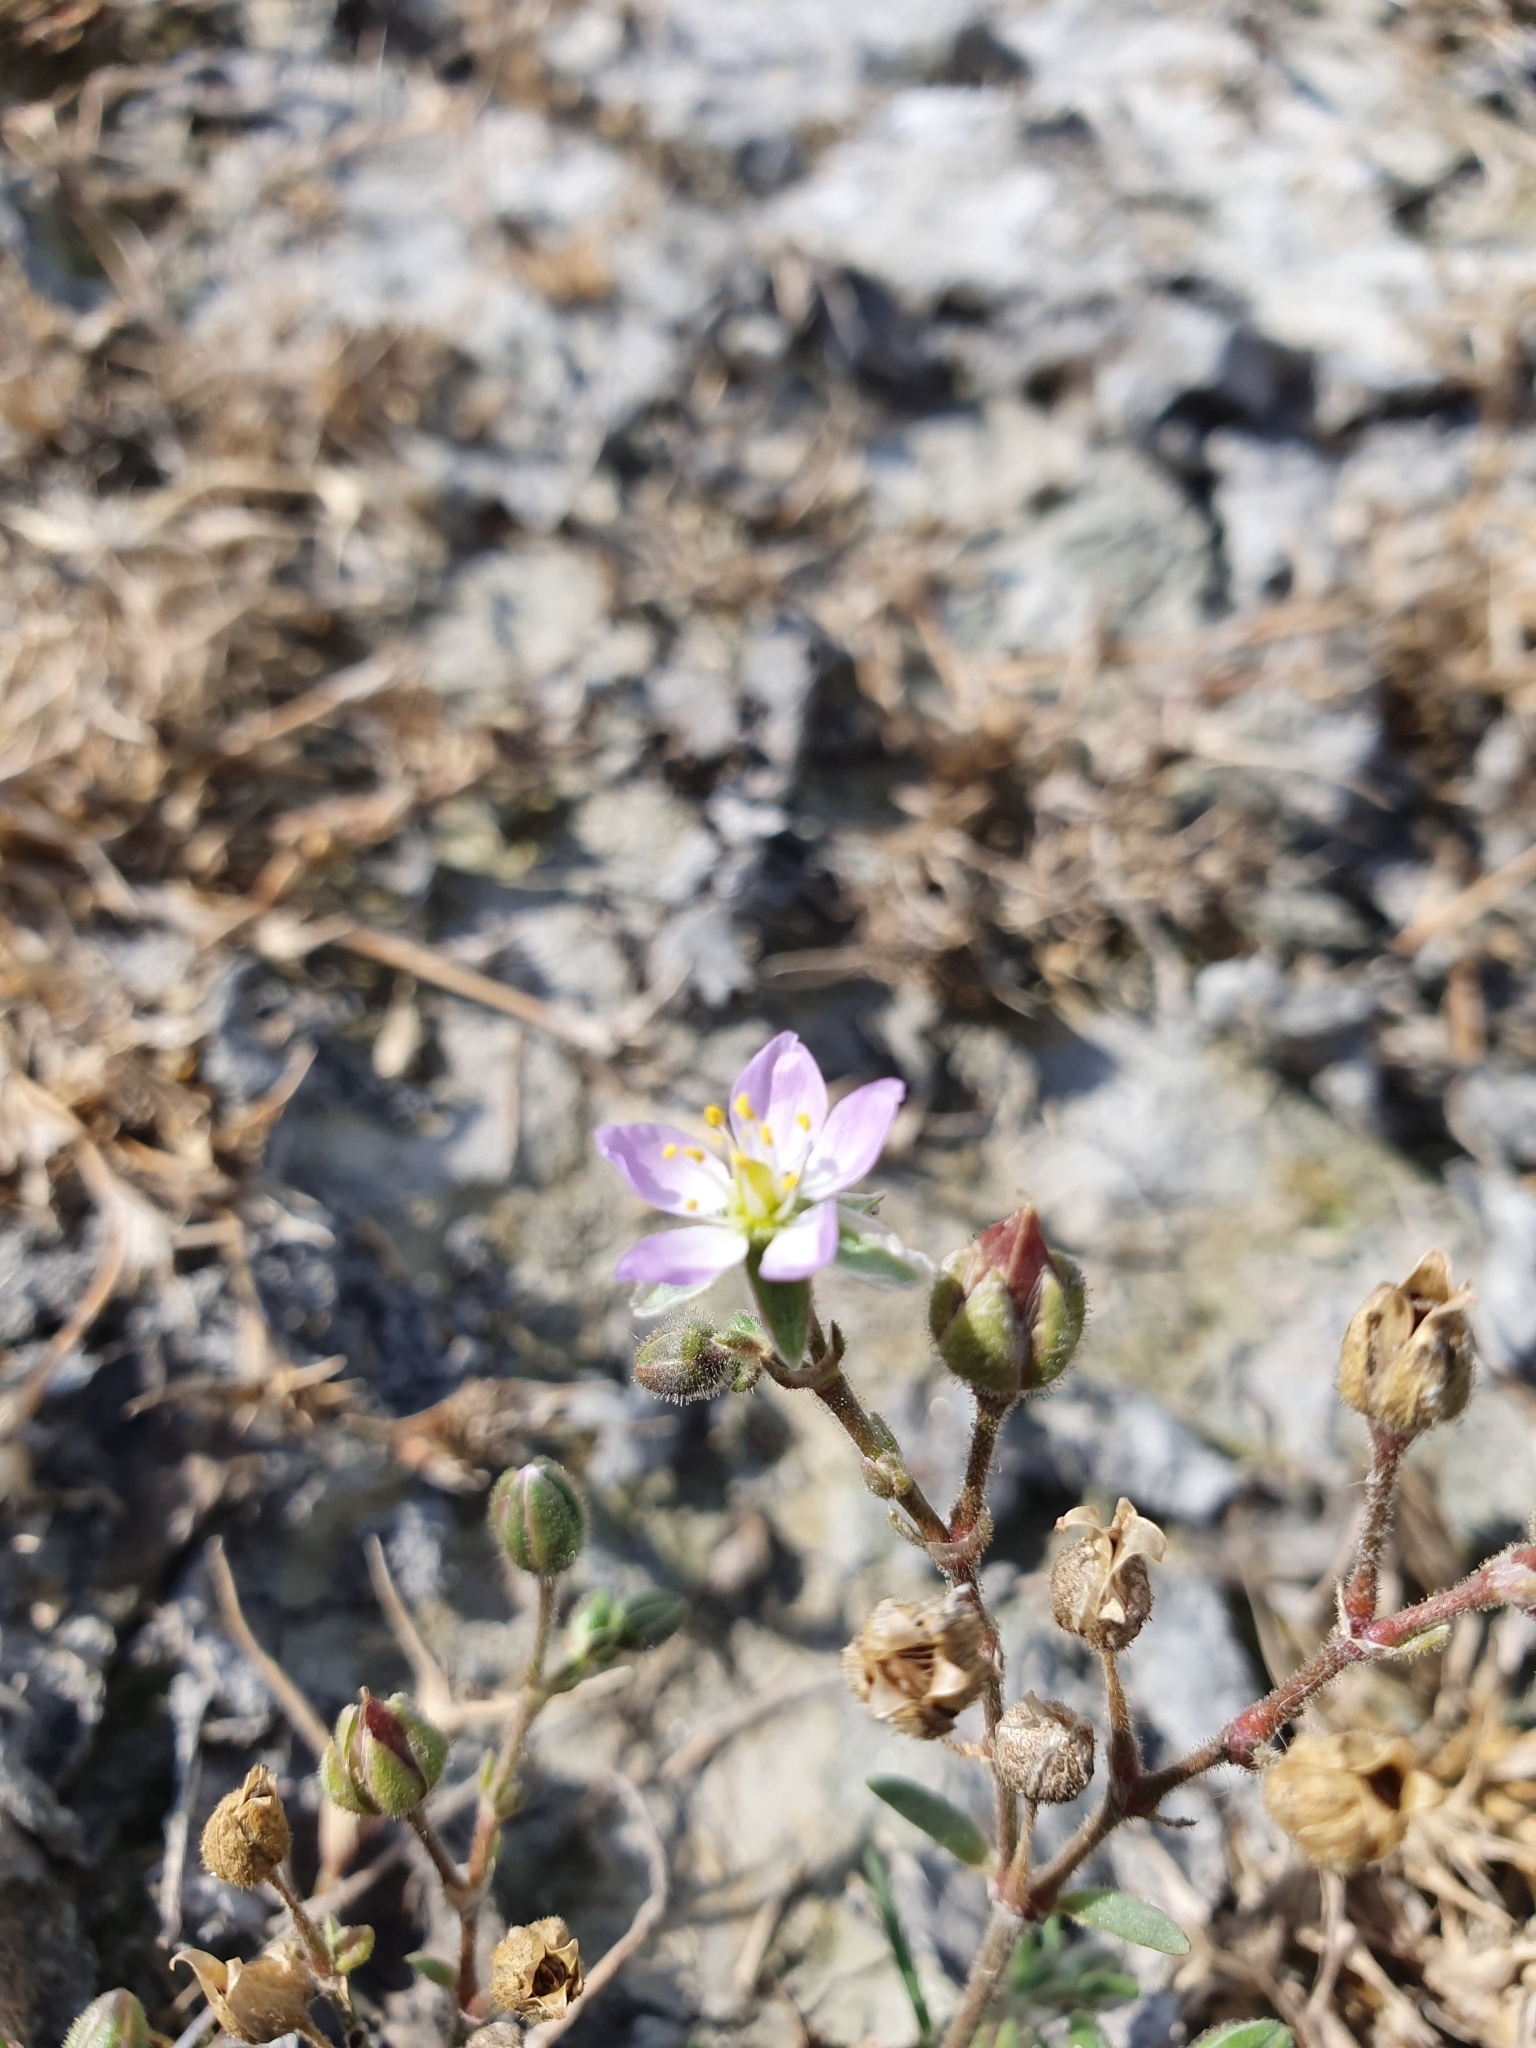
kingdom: Plantae
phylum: Tracheophyta
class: Magnoliopsida
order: Caryophyllales
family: Caryophyllaceae
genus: Spergularia
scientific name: Spergularia media
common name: Greater sea-spurrey
